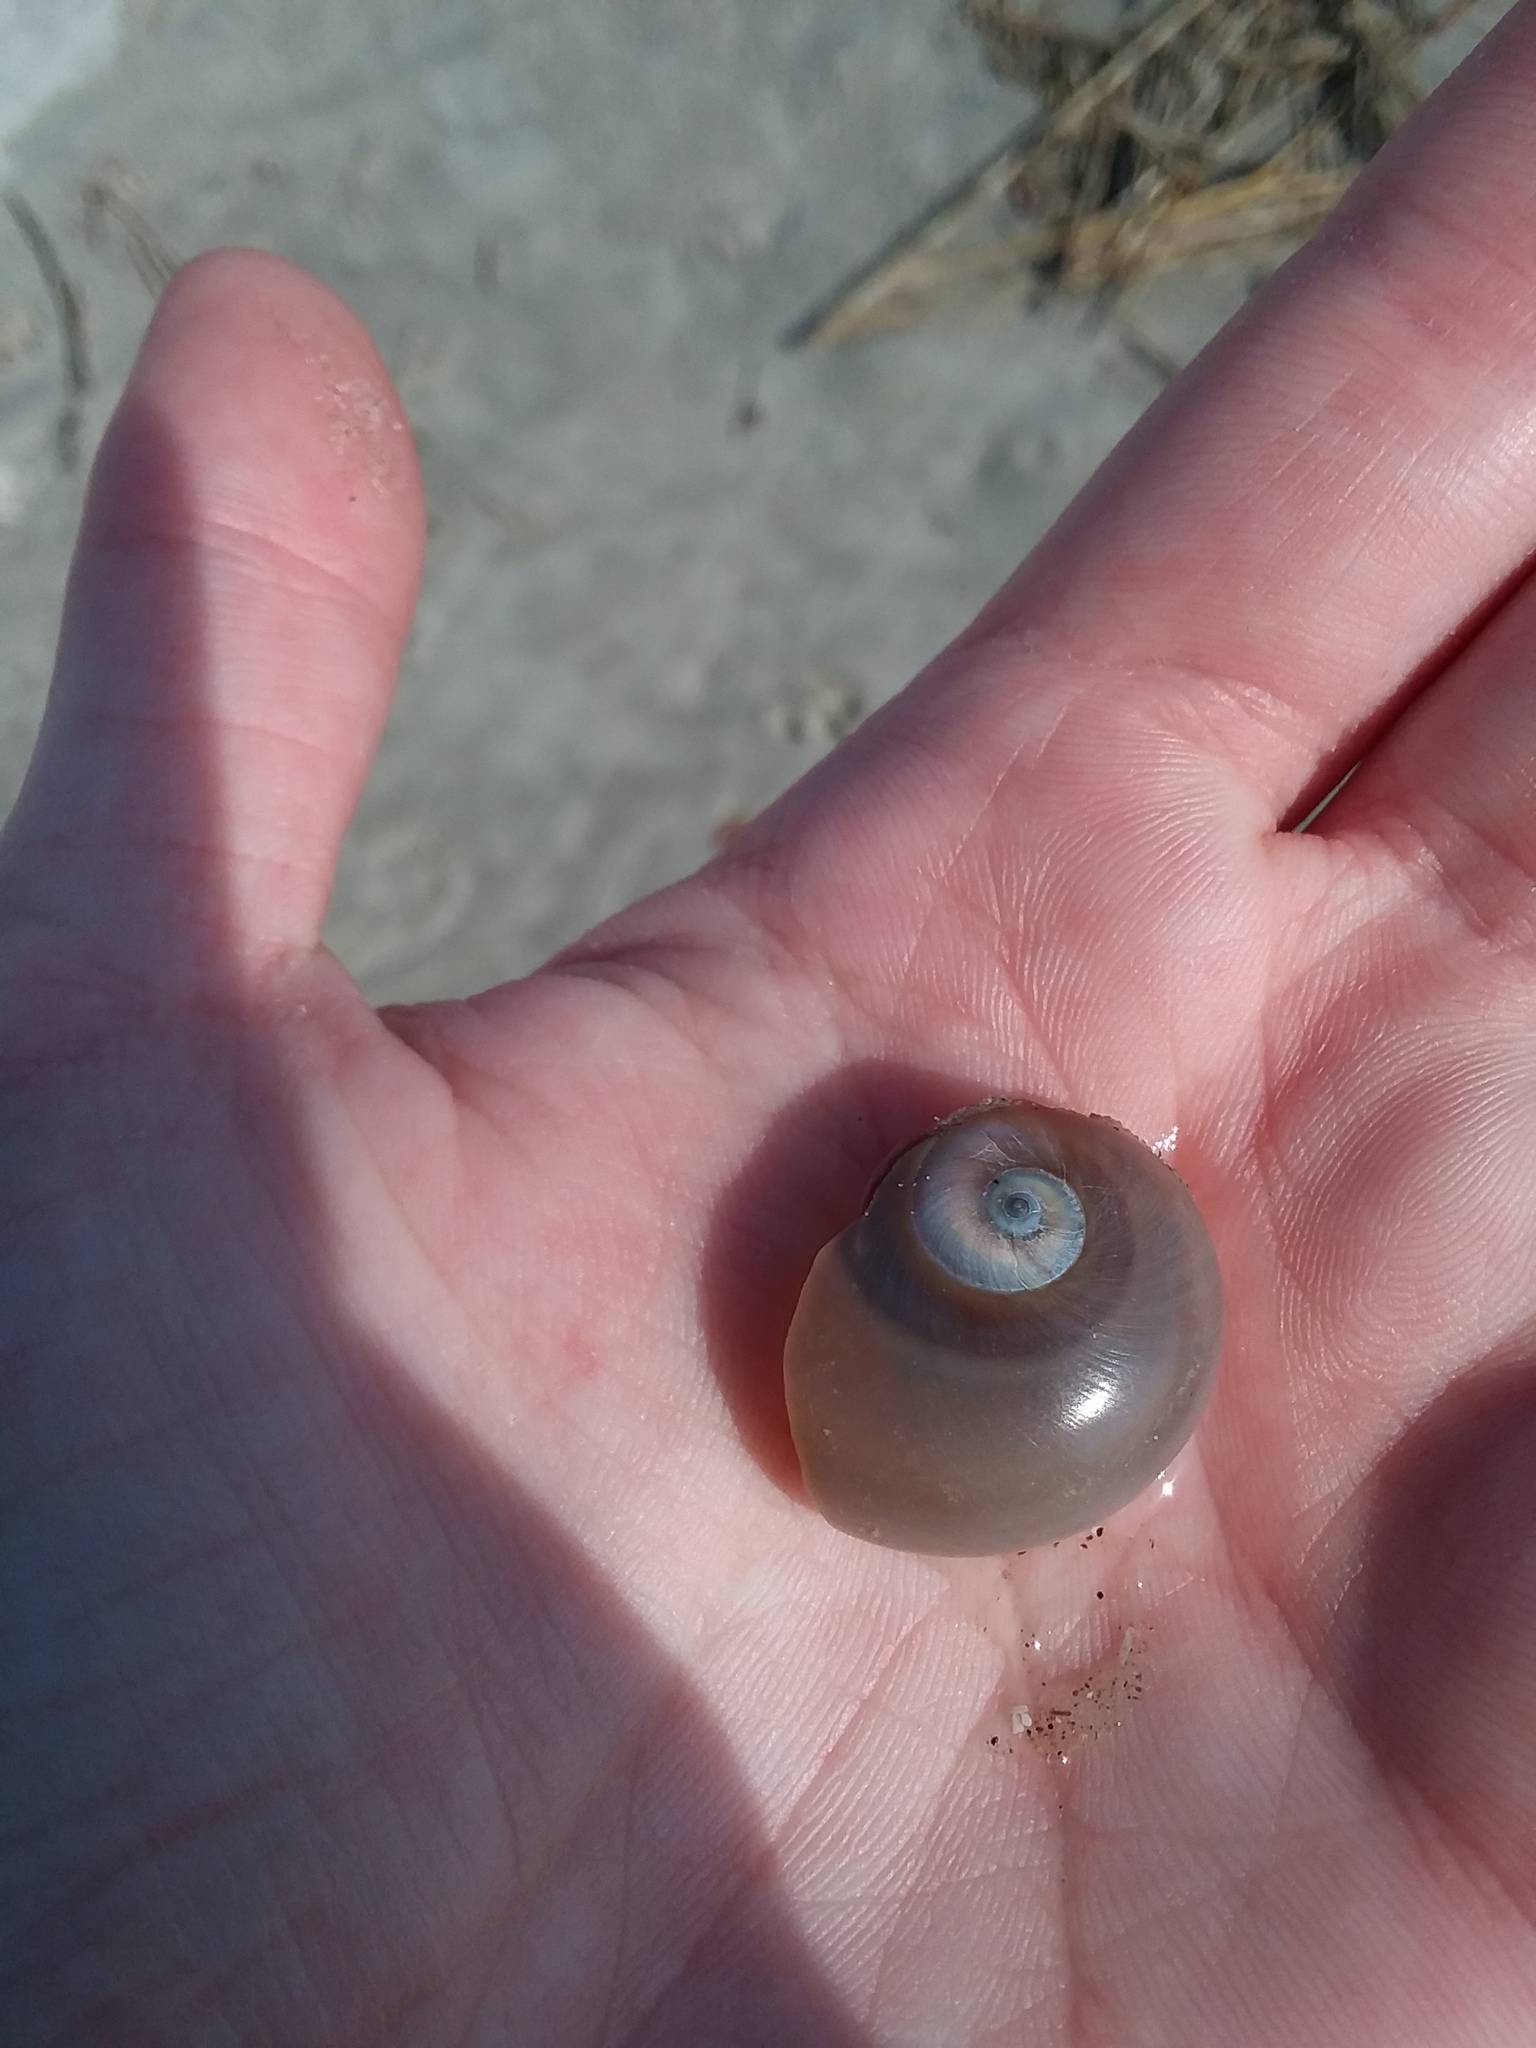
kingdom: Animalia
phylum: Mollusca
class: Gastropoda
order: Littorinimorpha
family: Naticidae
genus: Neverita
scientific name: Neverita duplicata
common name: Lobed moonsnail
